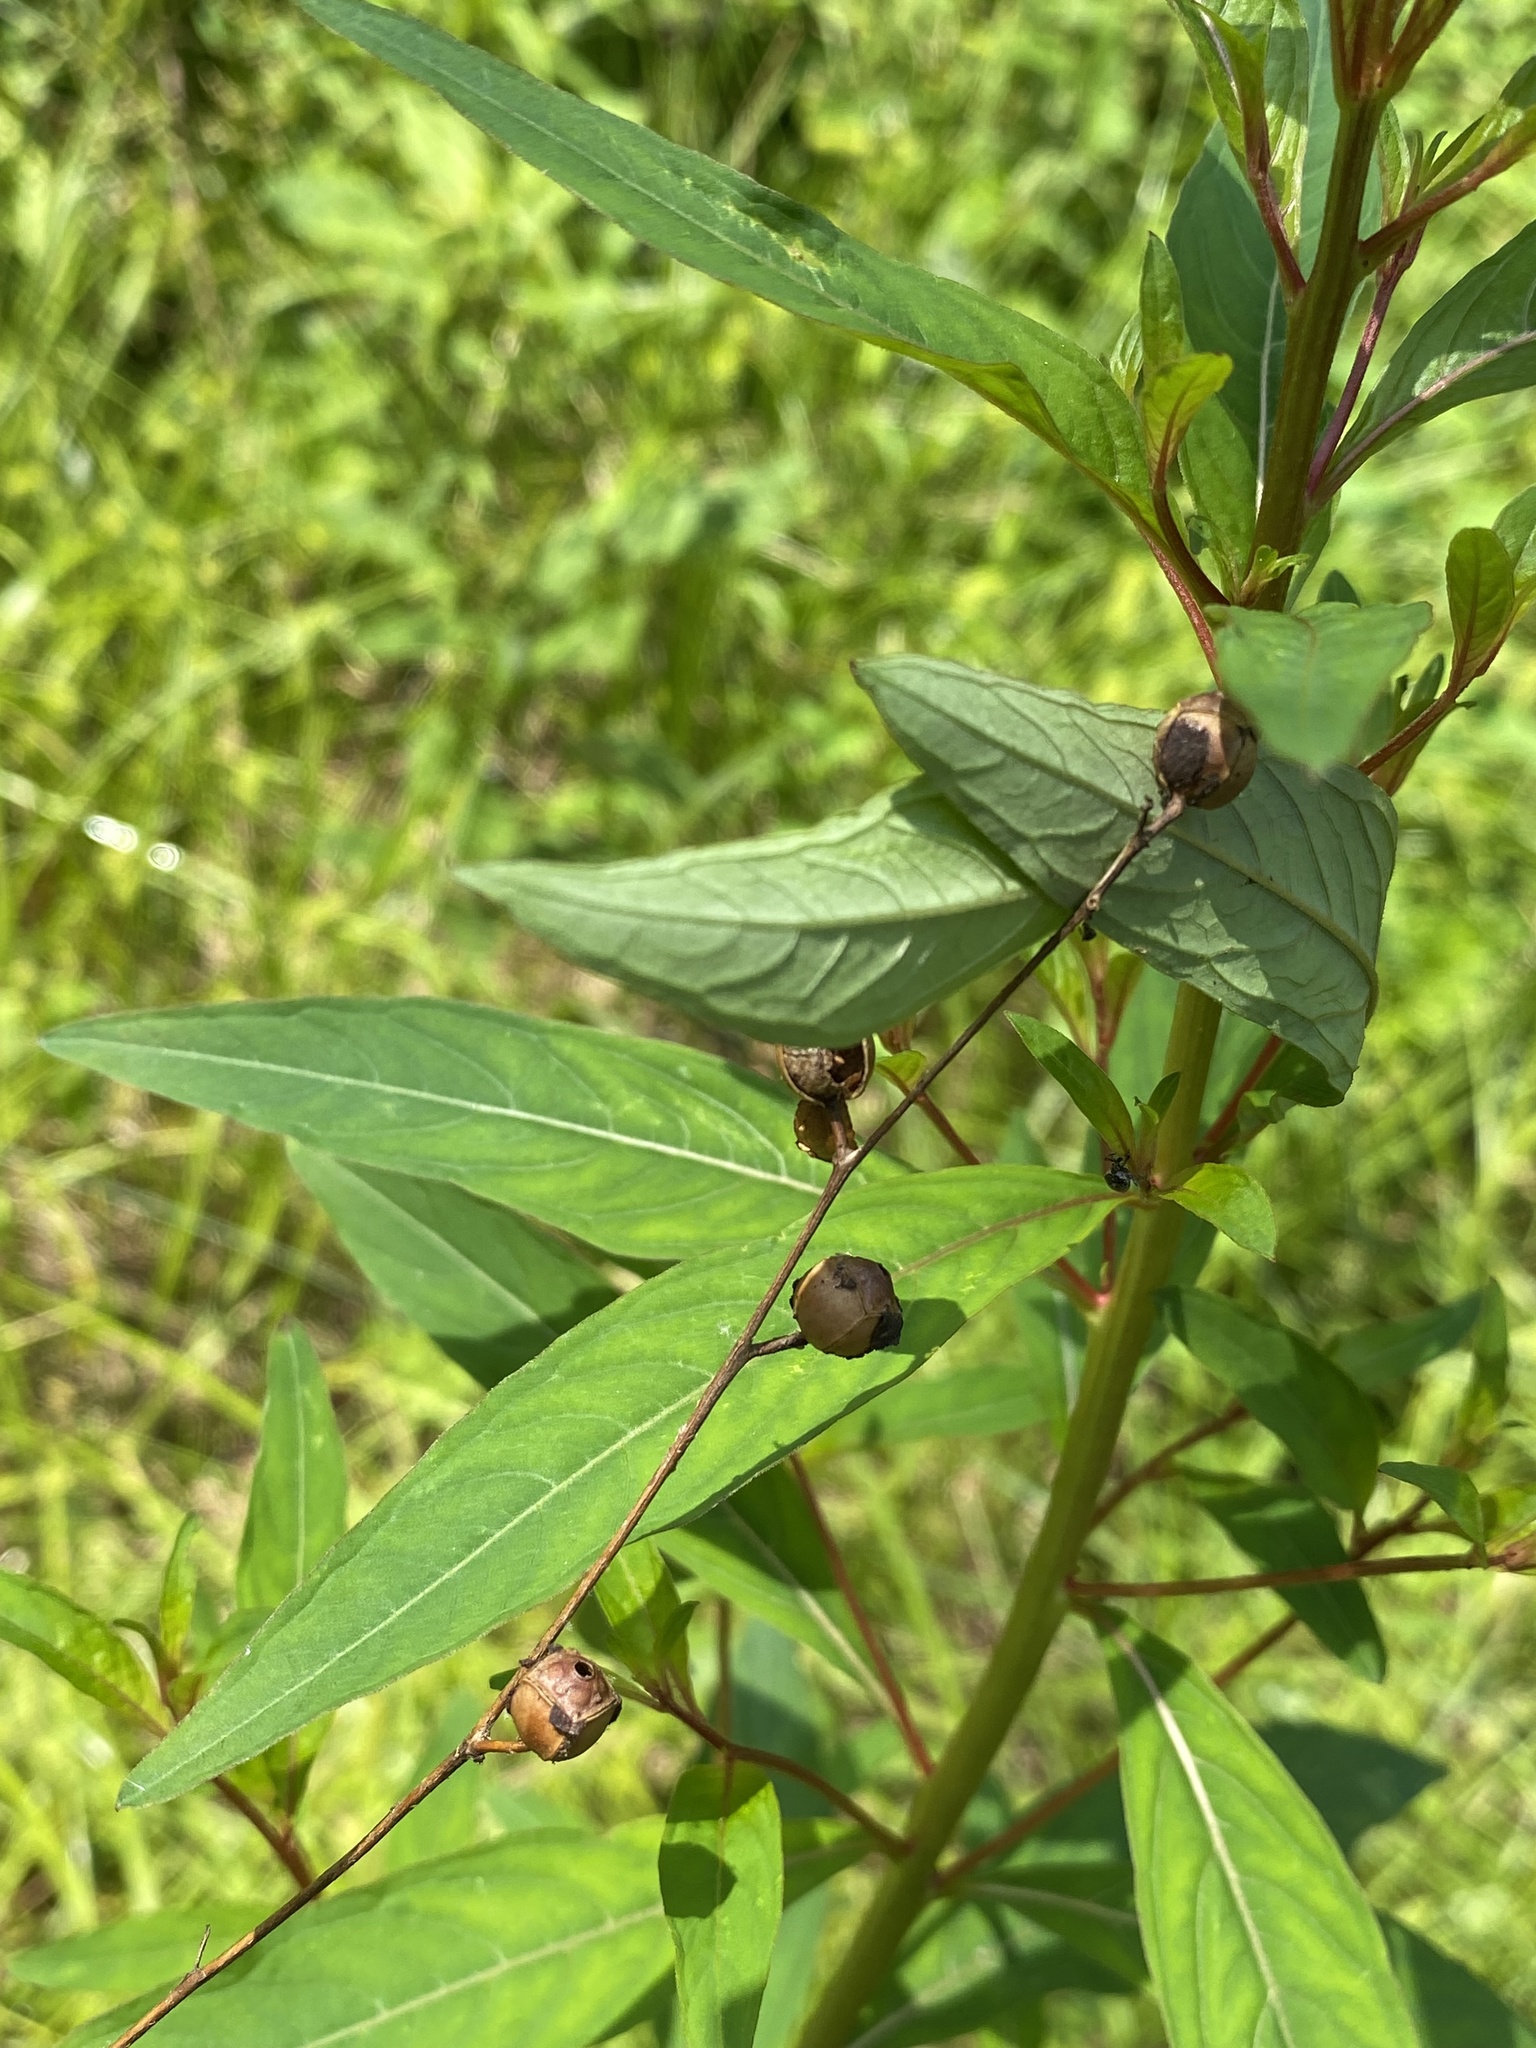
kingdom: Plantae
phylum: Tracheophyta
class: Magnoliopsida
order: Myrtales
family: Onagraceae
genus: Ludwigia
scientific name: Ludwigia alternifolia
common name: Rattlebox
